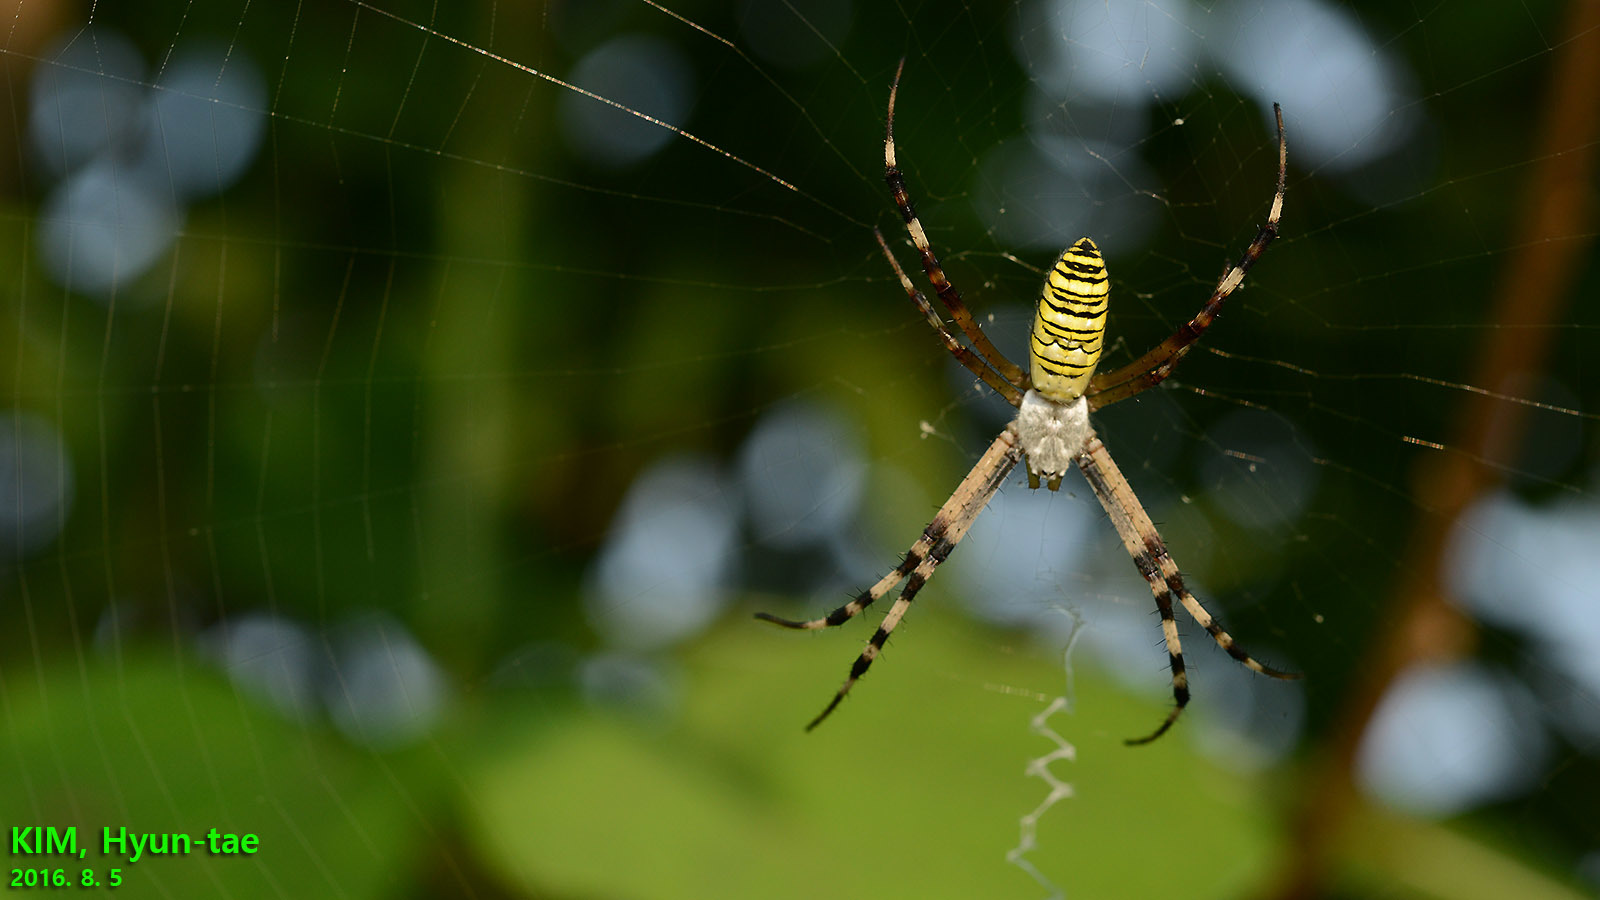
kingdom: Animalia
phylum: Arthropoda
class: Arachnida
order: Araneae
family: Araneidae
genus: Argiope
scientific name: Argiope bruennichi
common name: Wasp spider
